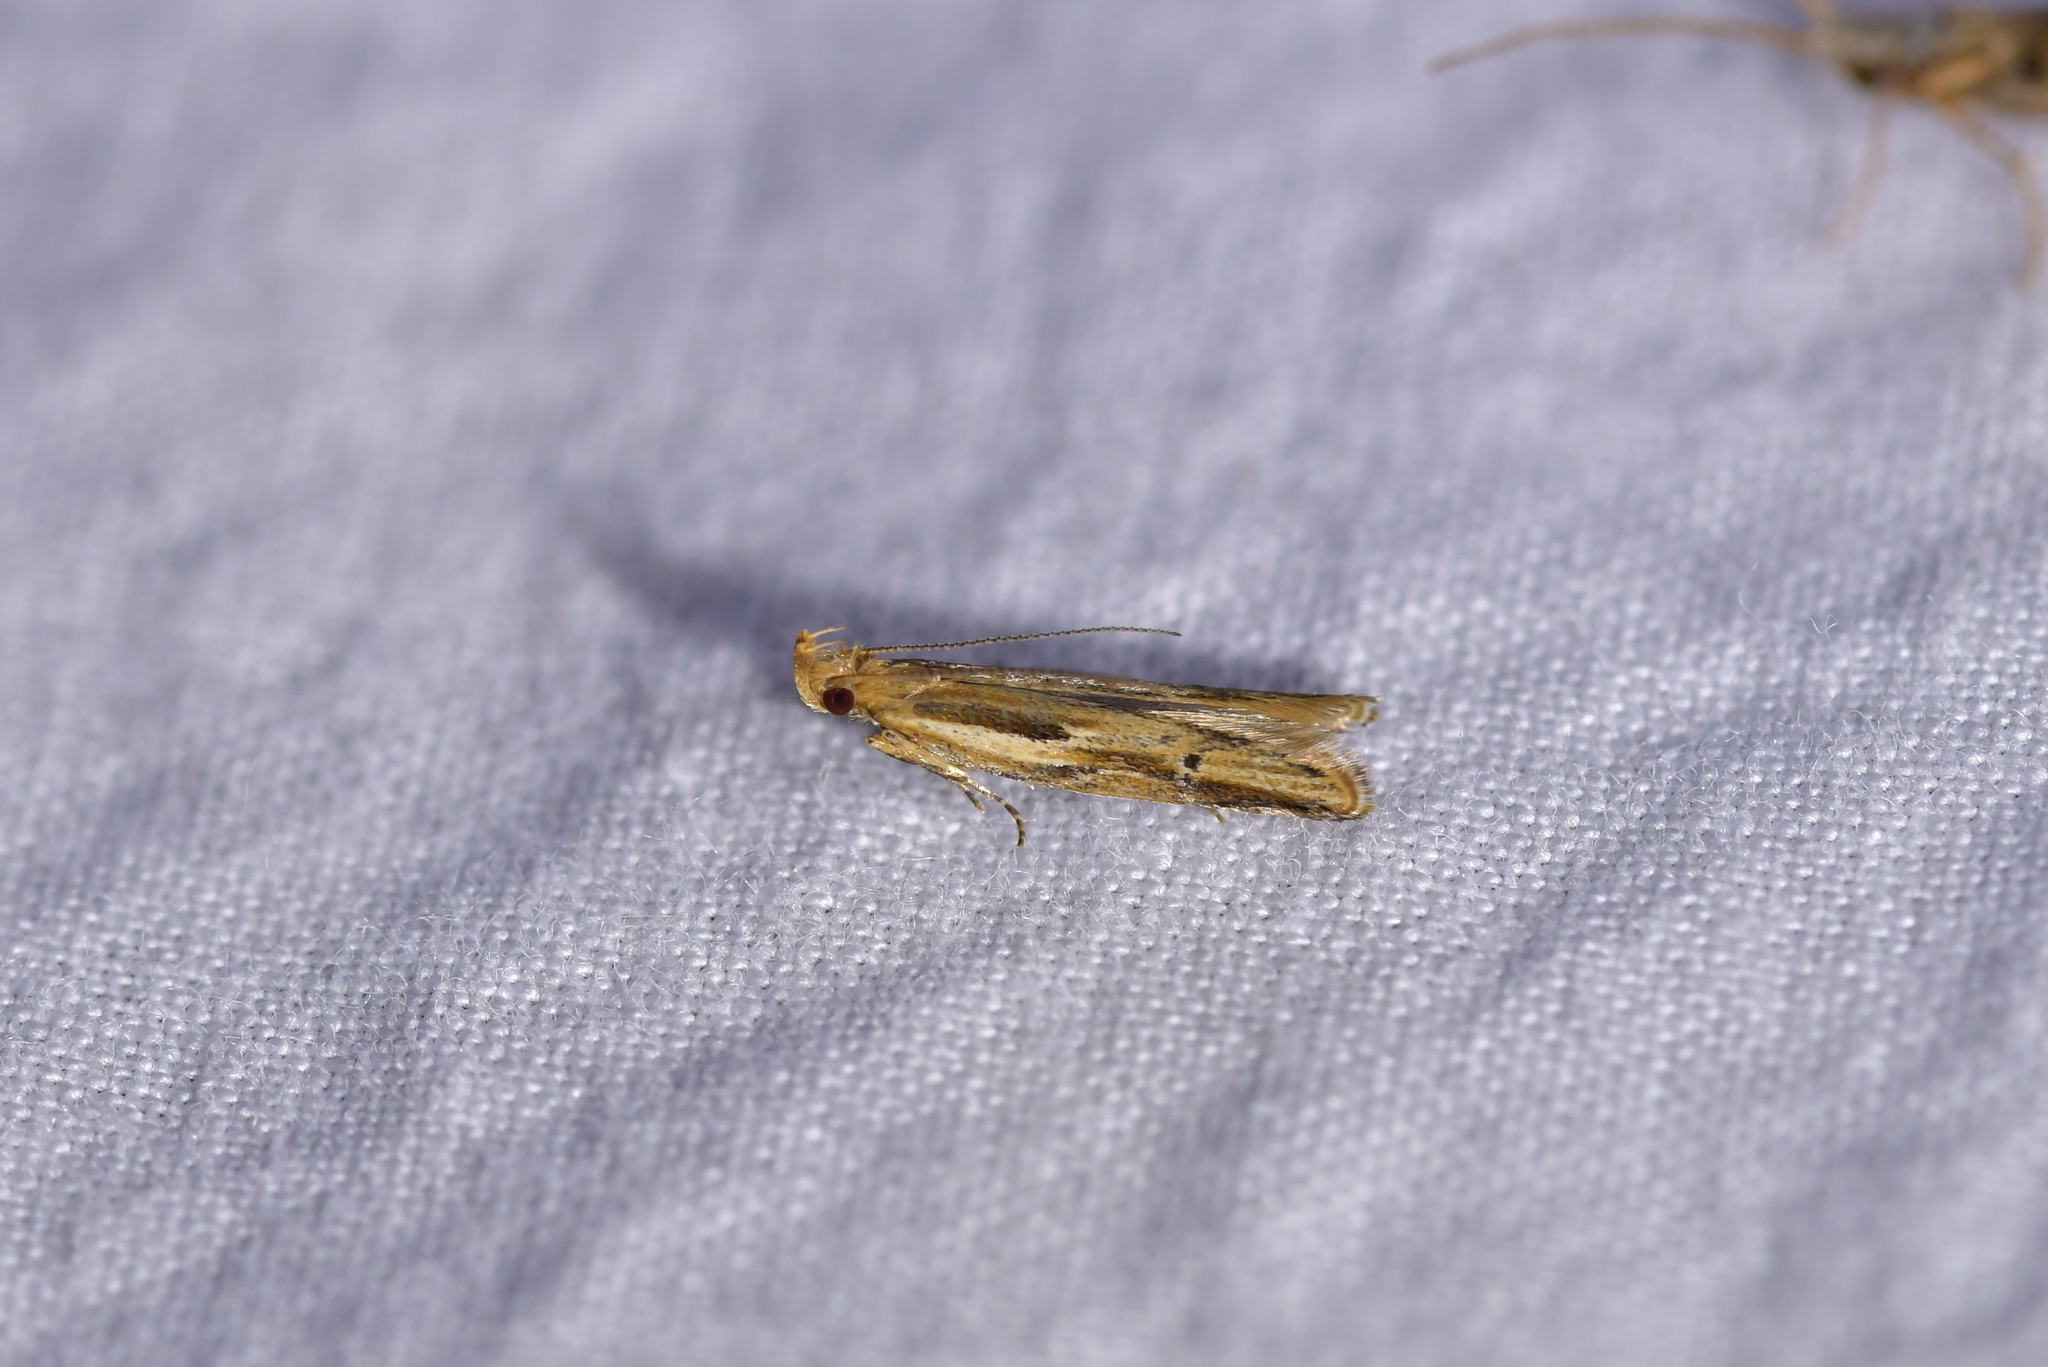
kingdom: Animalia
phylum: Arthropoda
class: Insecta
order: Lepidoptera
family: Depressariidae
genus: Eutorna
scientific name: Eutorna symmorpha
